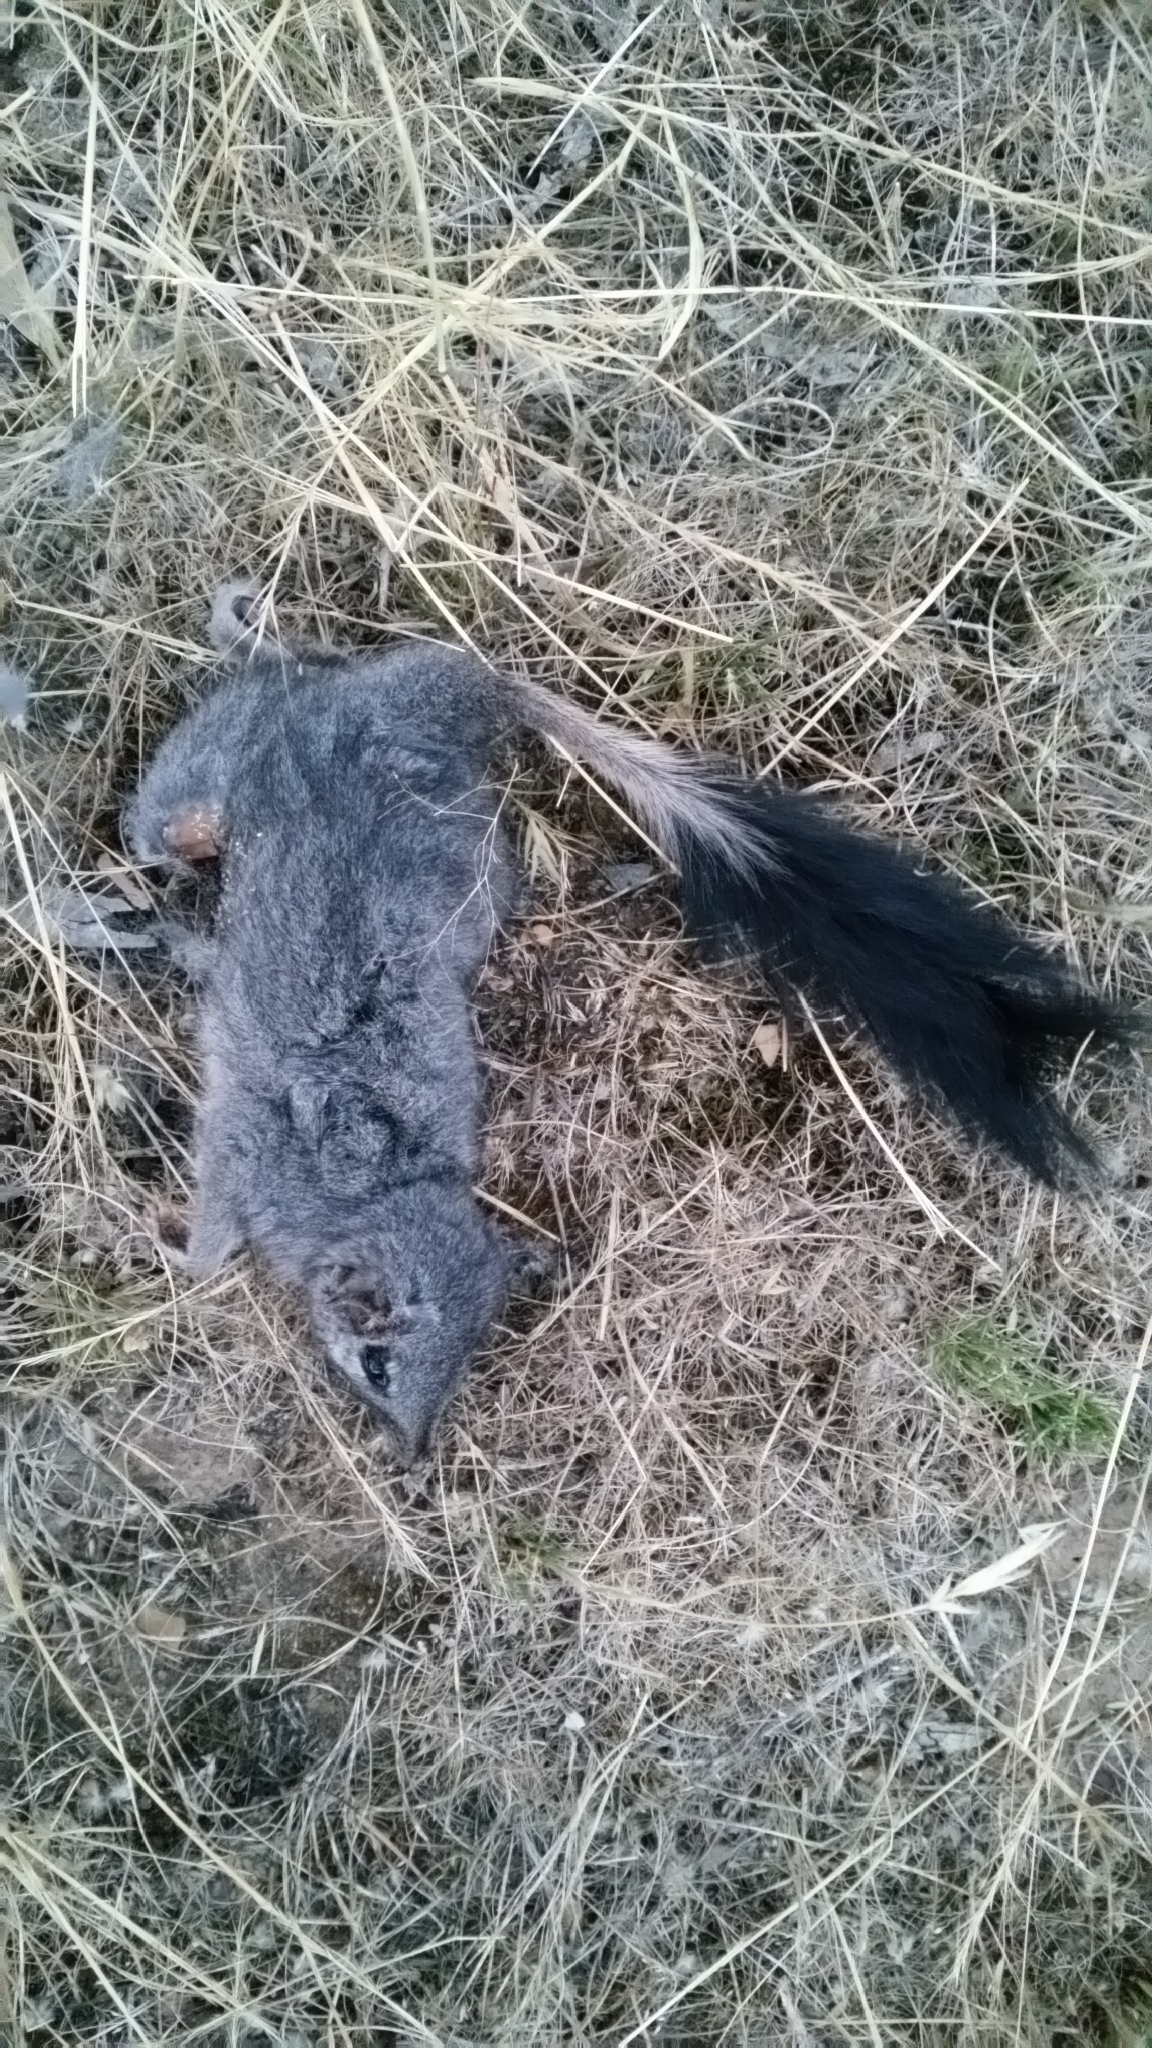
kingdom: Animalia
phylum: Chordata
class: Mammalia
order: Dasyuromorphia
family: Dasyuridae
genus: Phascogale
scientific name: Phascogale tapoatafa
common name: Brush-tailed phascogale
